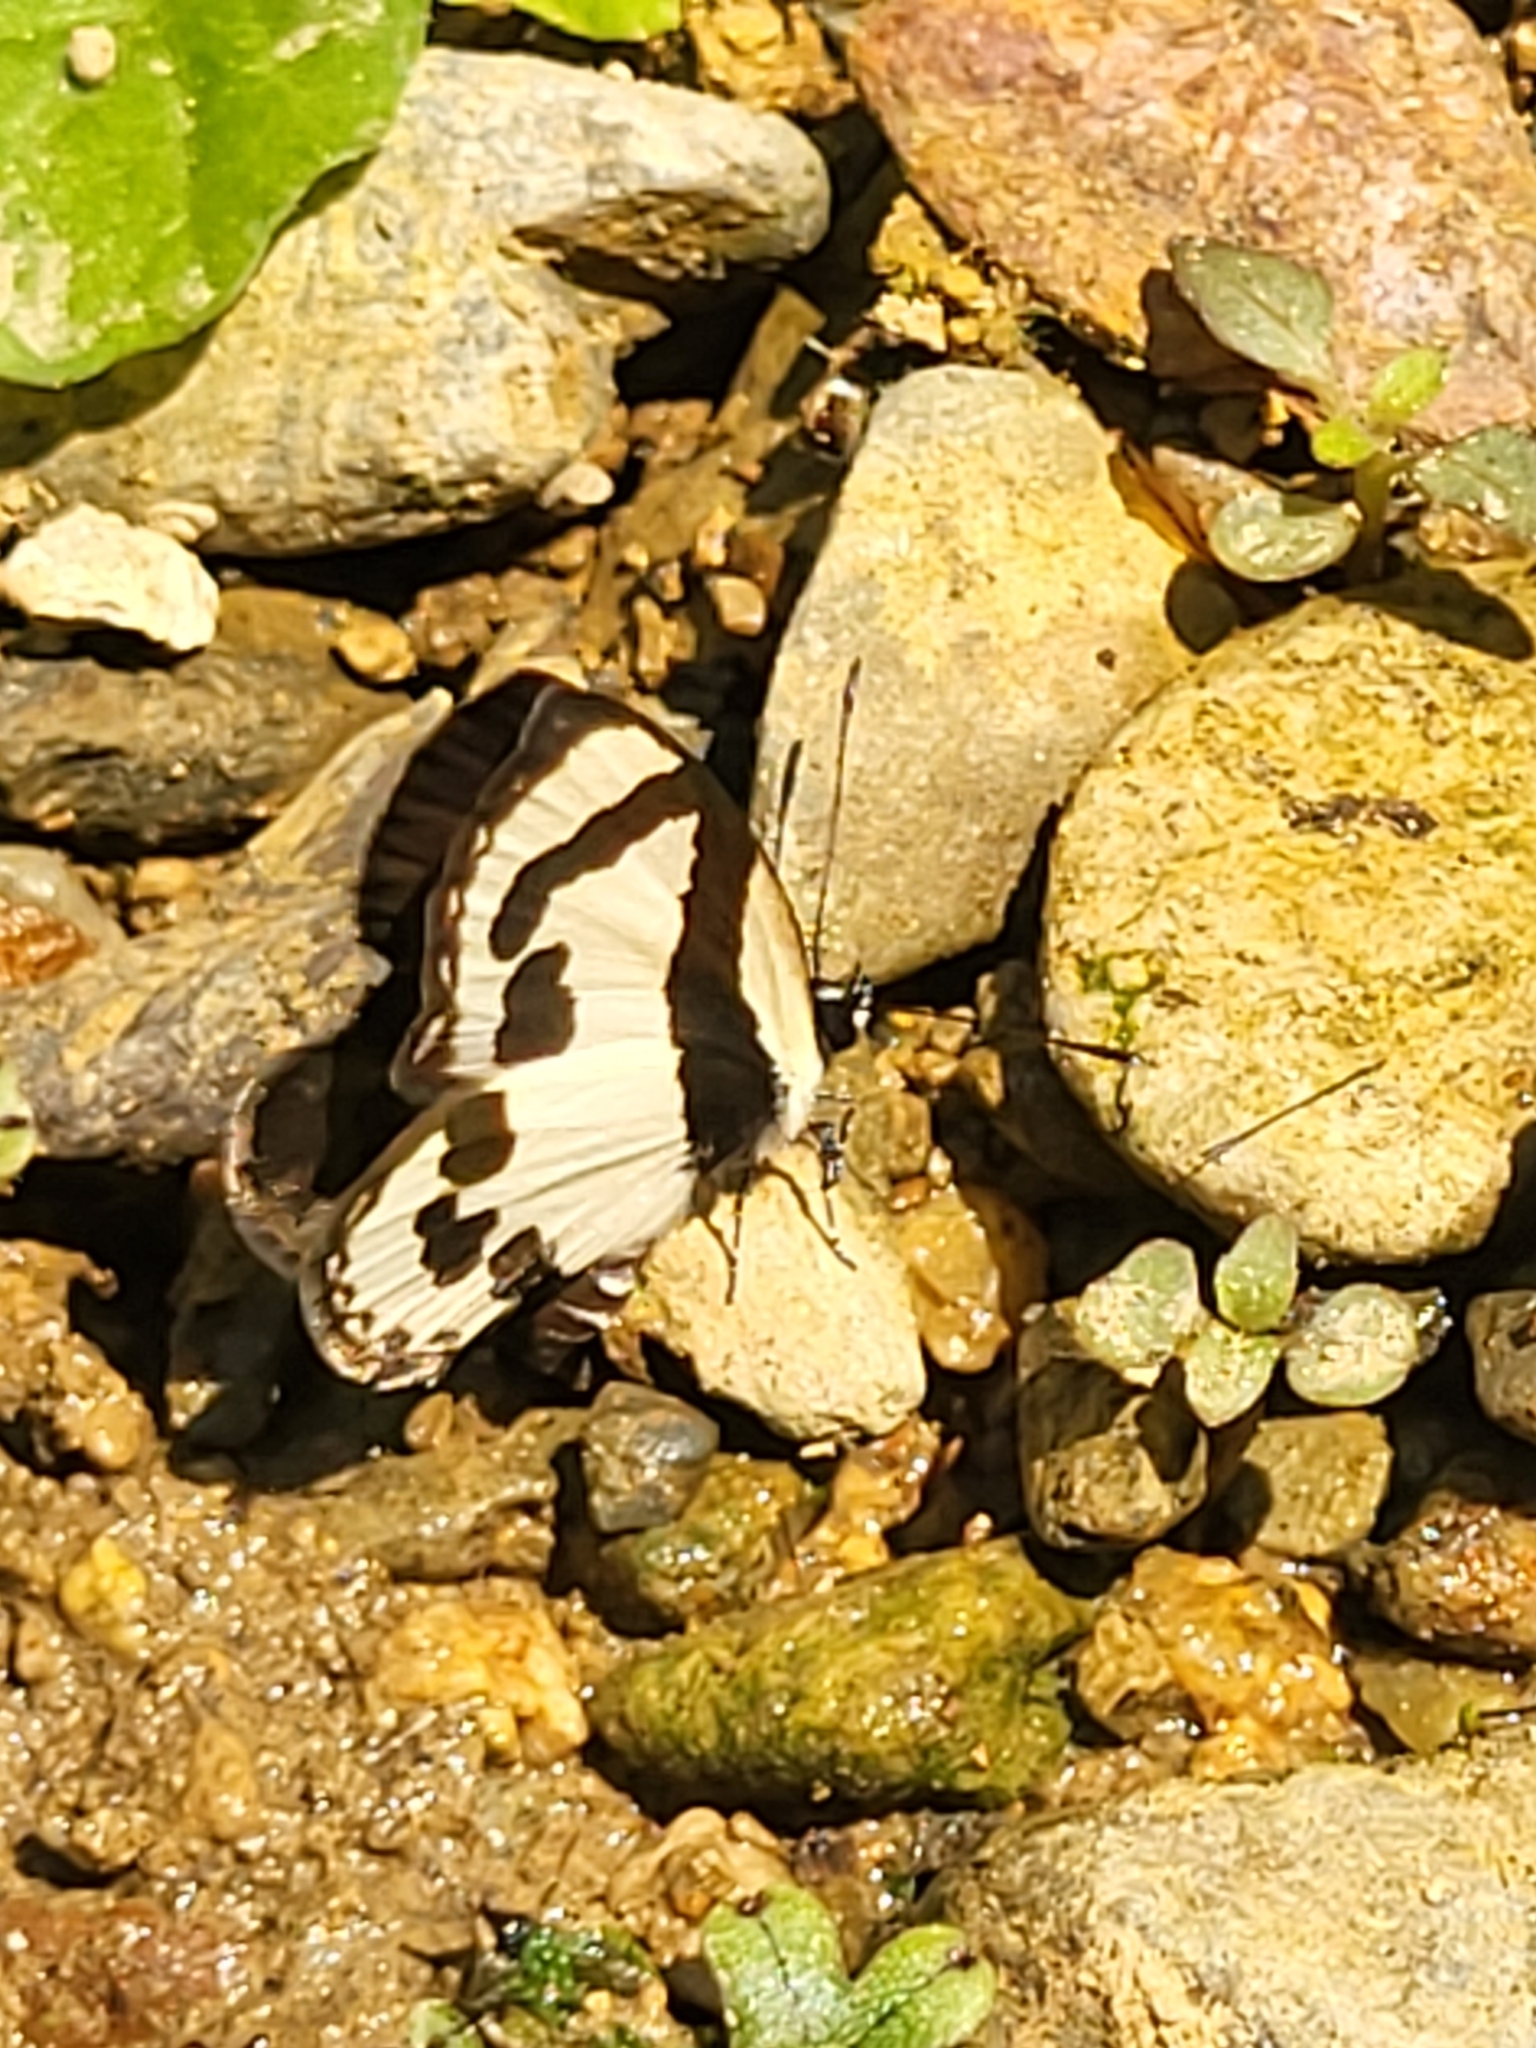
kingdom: Animalia
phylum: Arthropoda
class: Insecta
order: Lepidoptera
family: Lycaenidae
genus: Caleta
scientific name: Caleta roxus
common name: Straight pierrot
